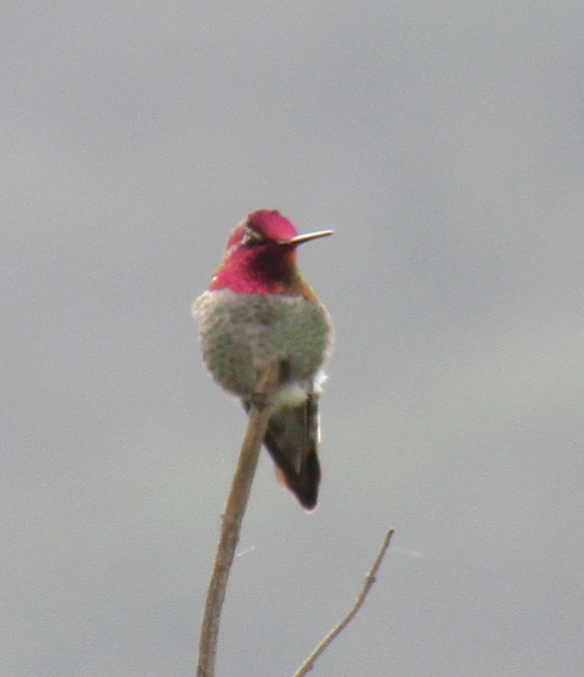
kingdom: Animalia
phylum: Chordata
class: Aves
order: Apodiformes
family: Trochilidae
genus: Calypte
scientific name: Calypte anna
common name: Anna's hummingbird
